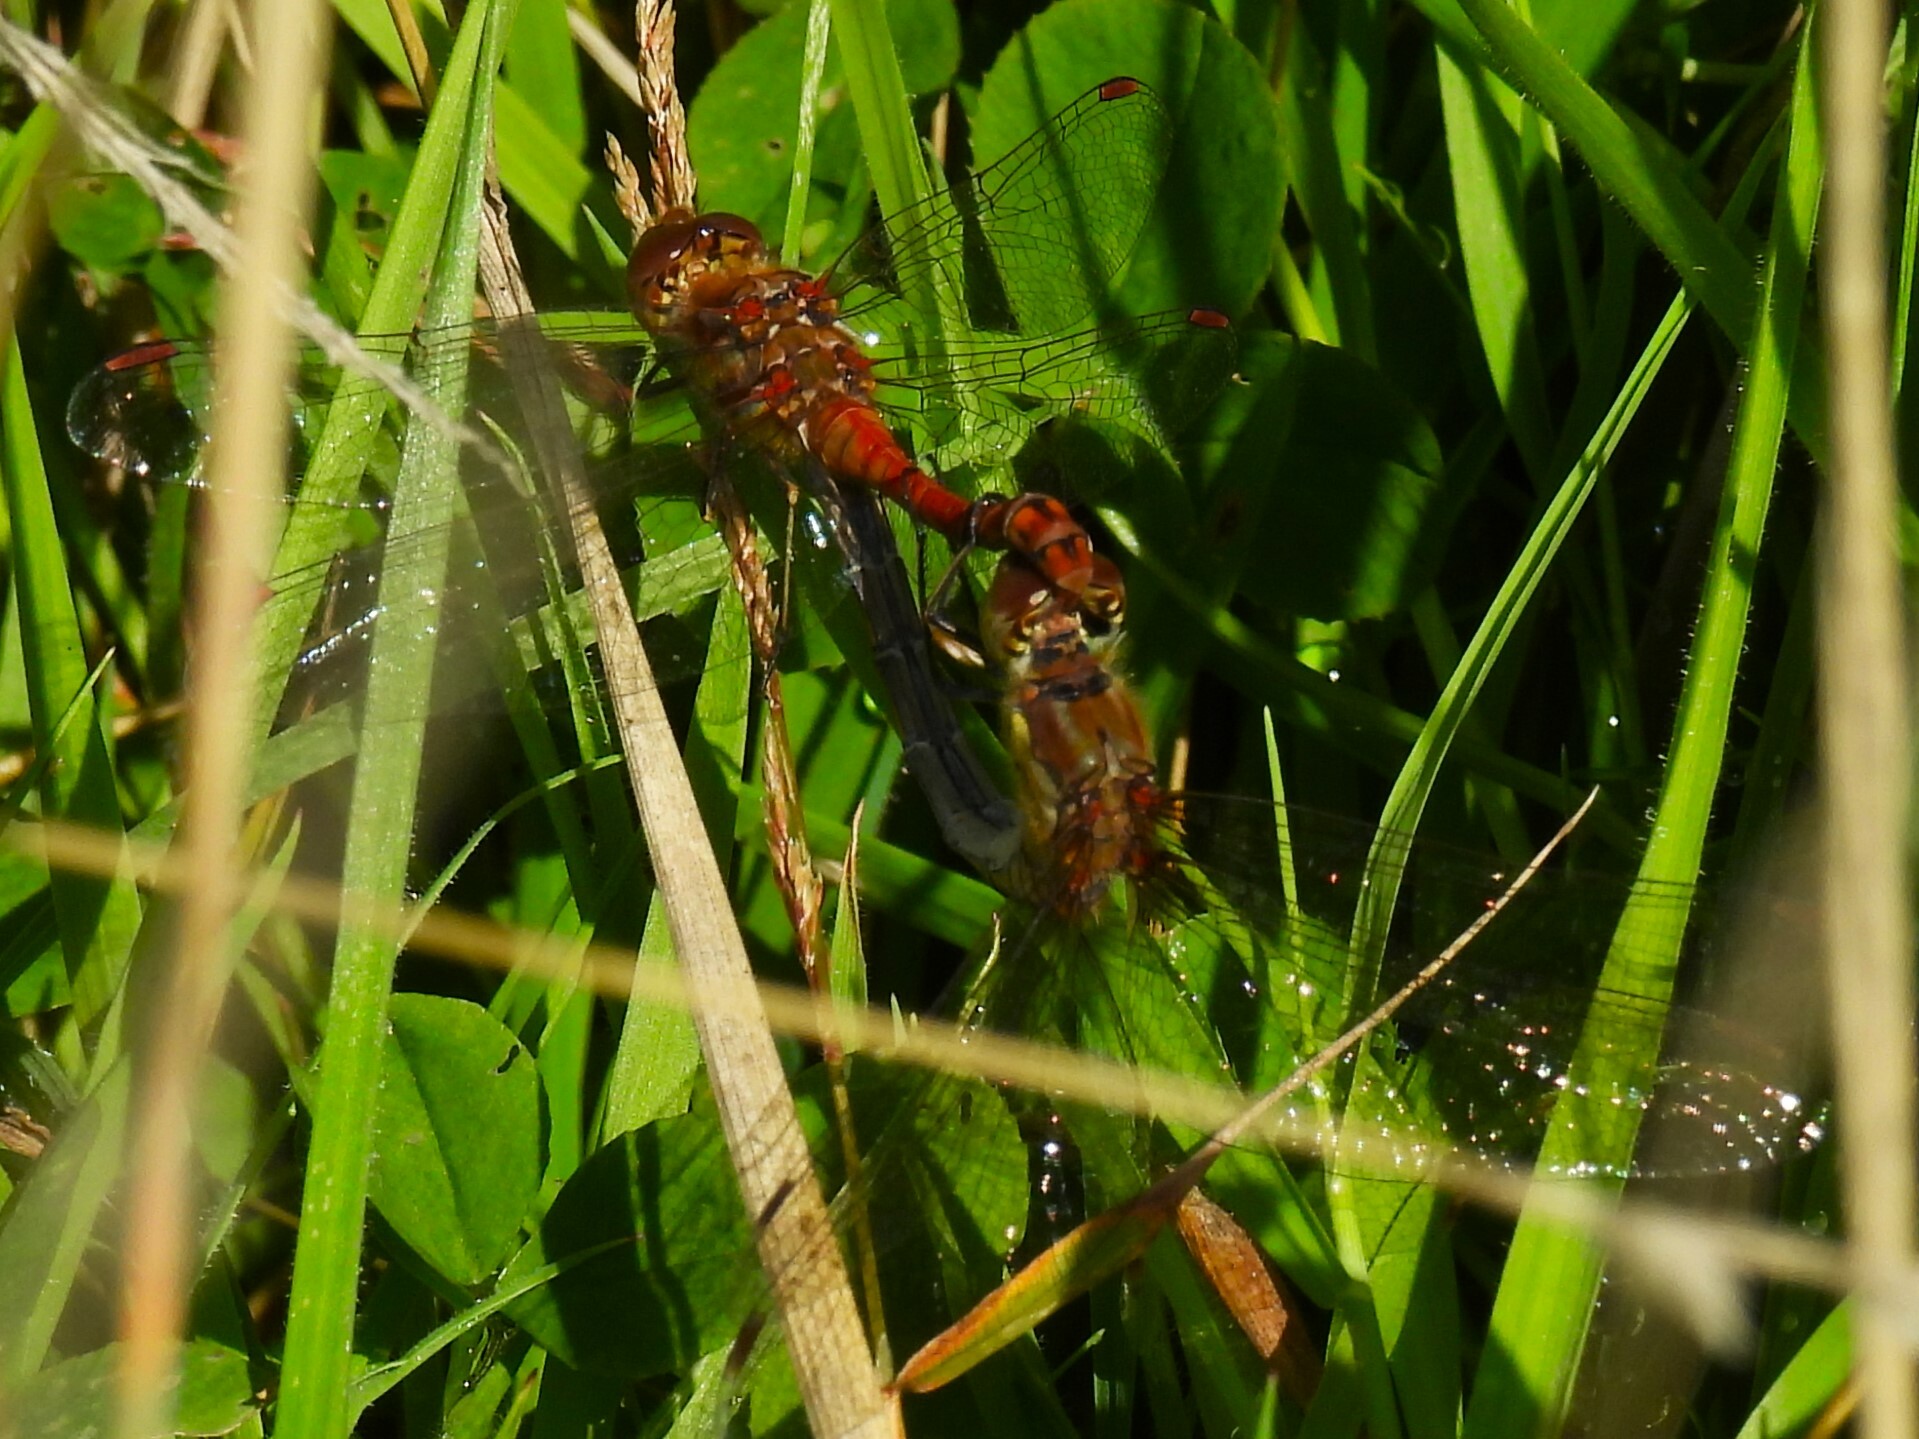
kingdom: Animalia
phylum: Arthropoda
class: Insecta
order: Odonata
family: Libellulidae
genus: Sympetrum
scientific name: Sympetrum striolatum
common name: Common darter
